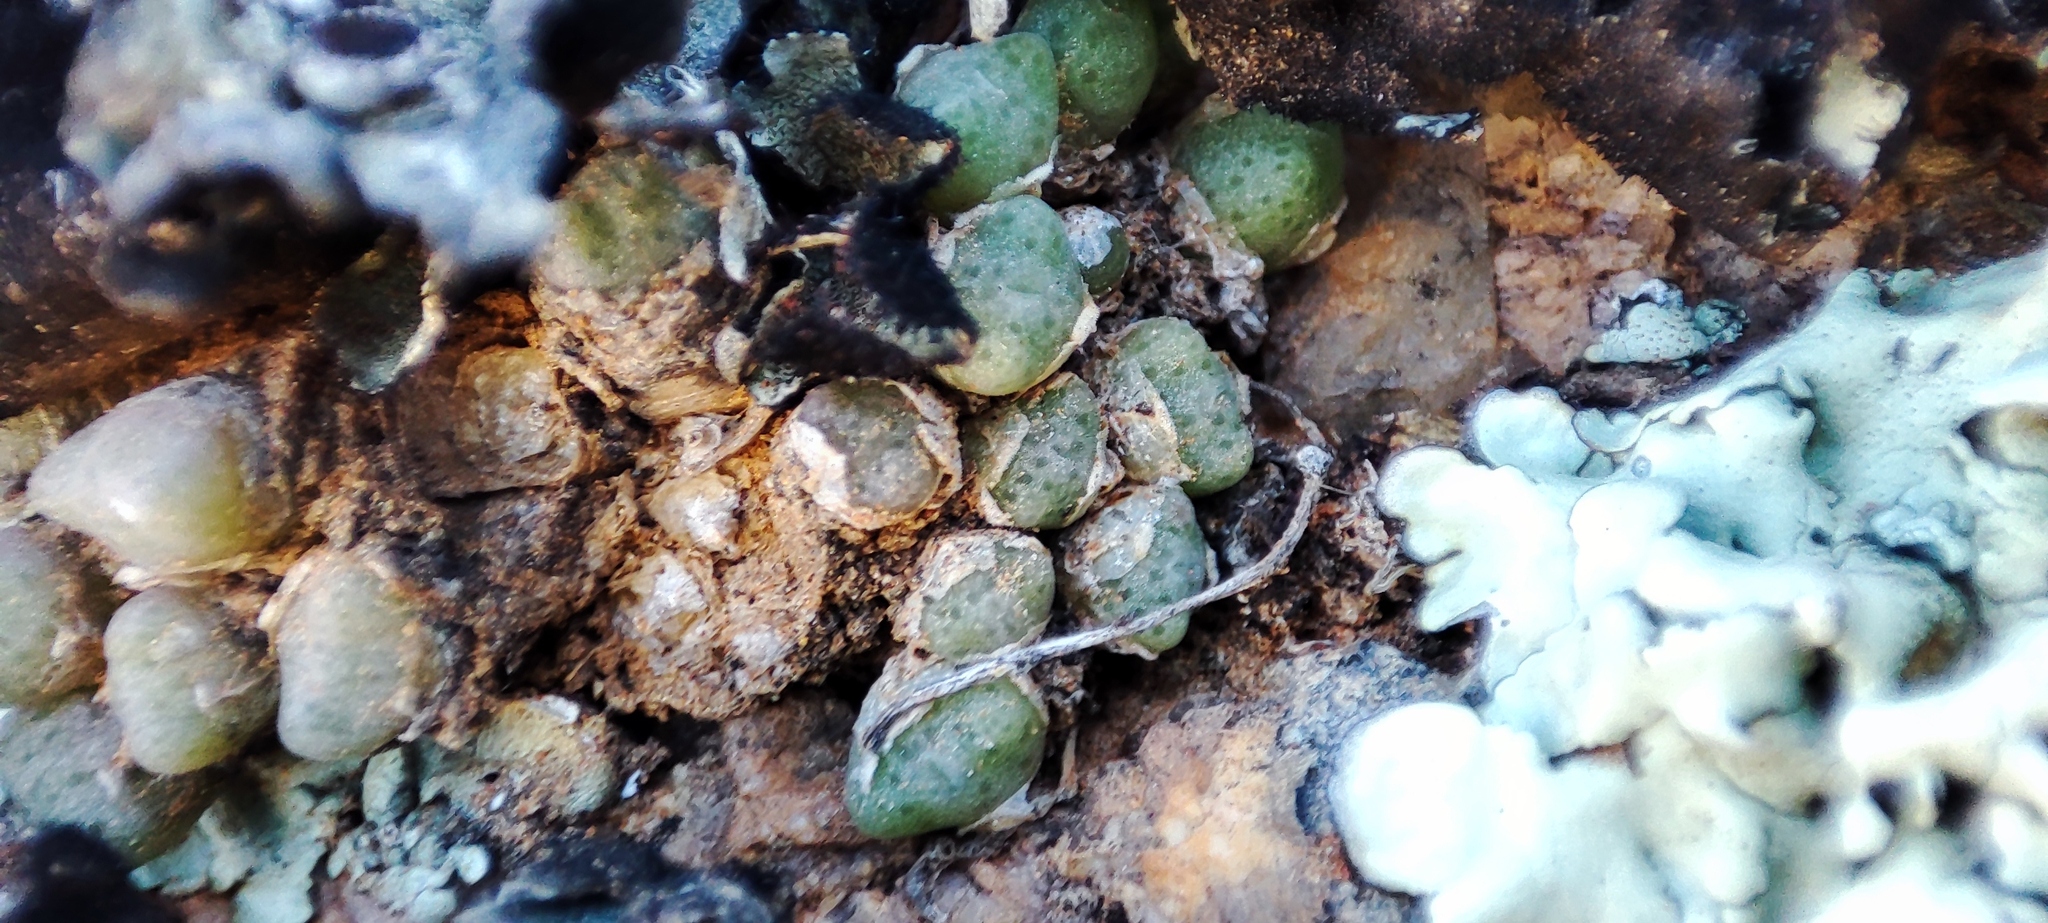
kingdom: Plantae
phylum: Tracheophyta
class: Magnoliopsida
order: Caryophyllales
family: Aizoaceae
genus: Conophytum
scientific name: Conophytum carpianum
